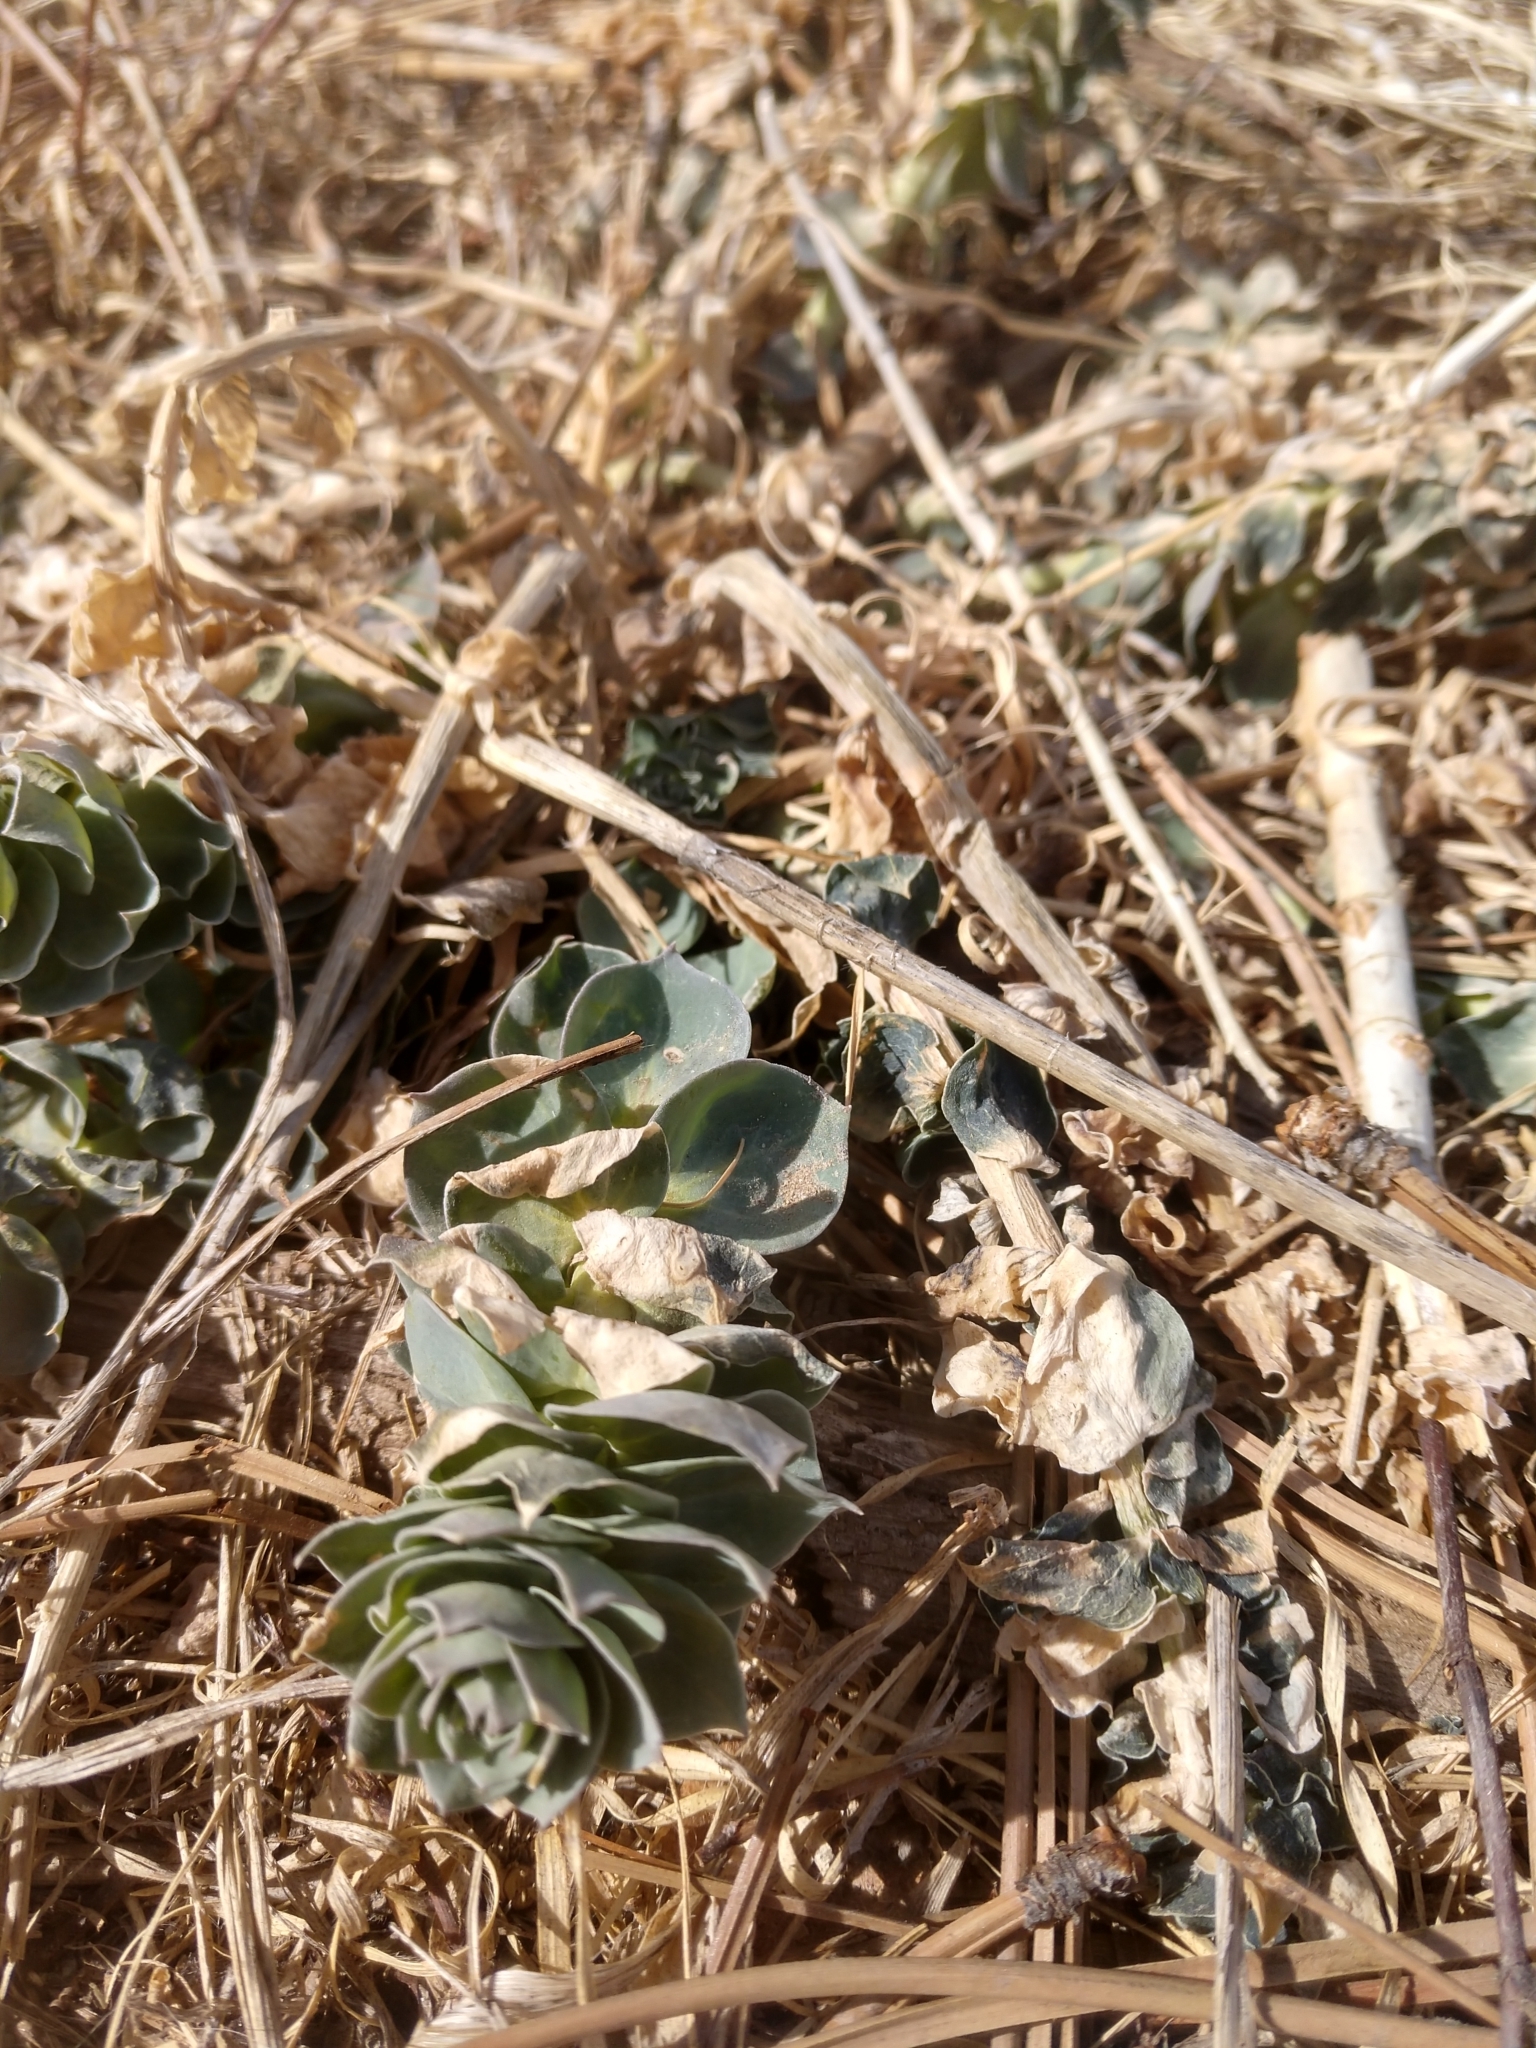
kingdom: Plantae
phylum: Tracheophyta
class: Magnoliopsida
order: Lamiales
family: Plantaginaceae
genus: Linaria
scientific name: Linaria dalmatica
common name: Dalmatian toadflax
